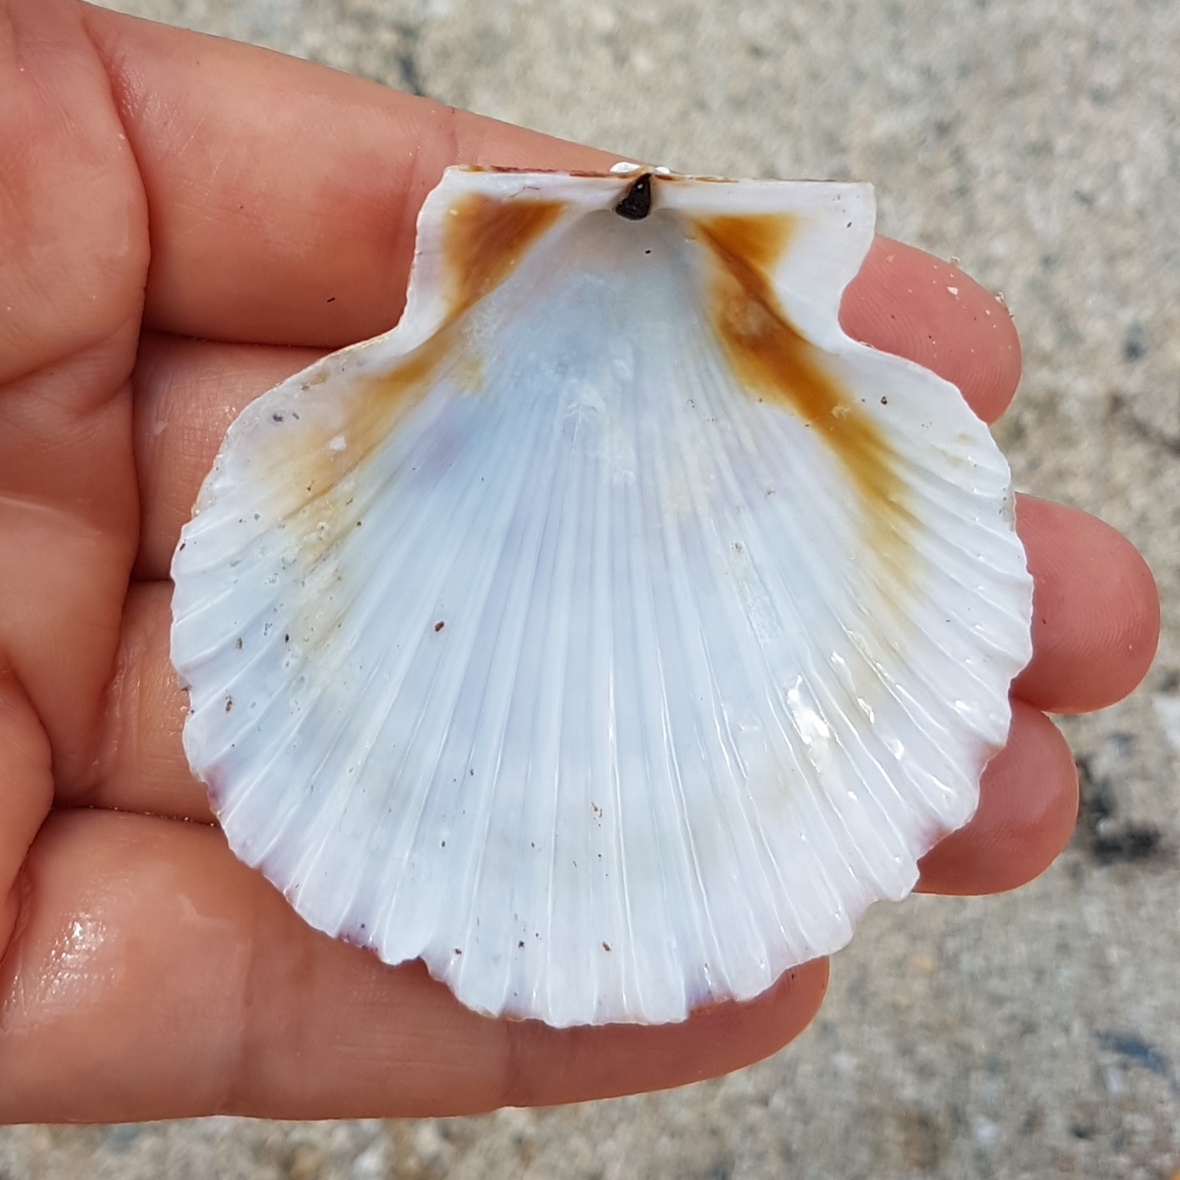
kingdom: Animalia
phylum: Mollusca
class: Bivalvia
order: Pectinida
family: Pectinidae
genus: Aequipecten
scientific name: Aequipecten opercularis
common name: Queen scallop
